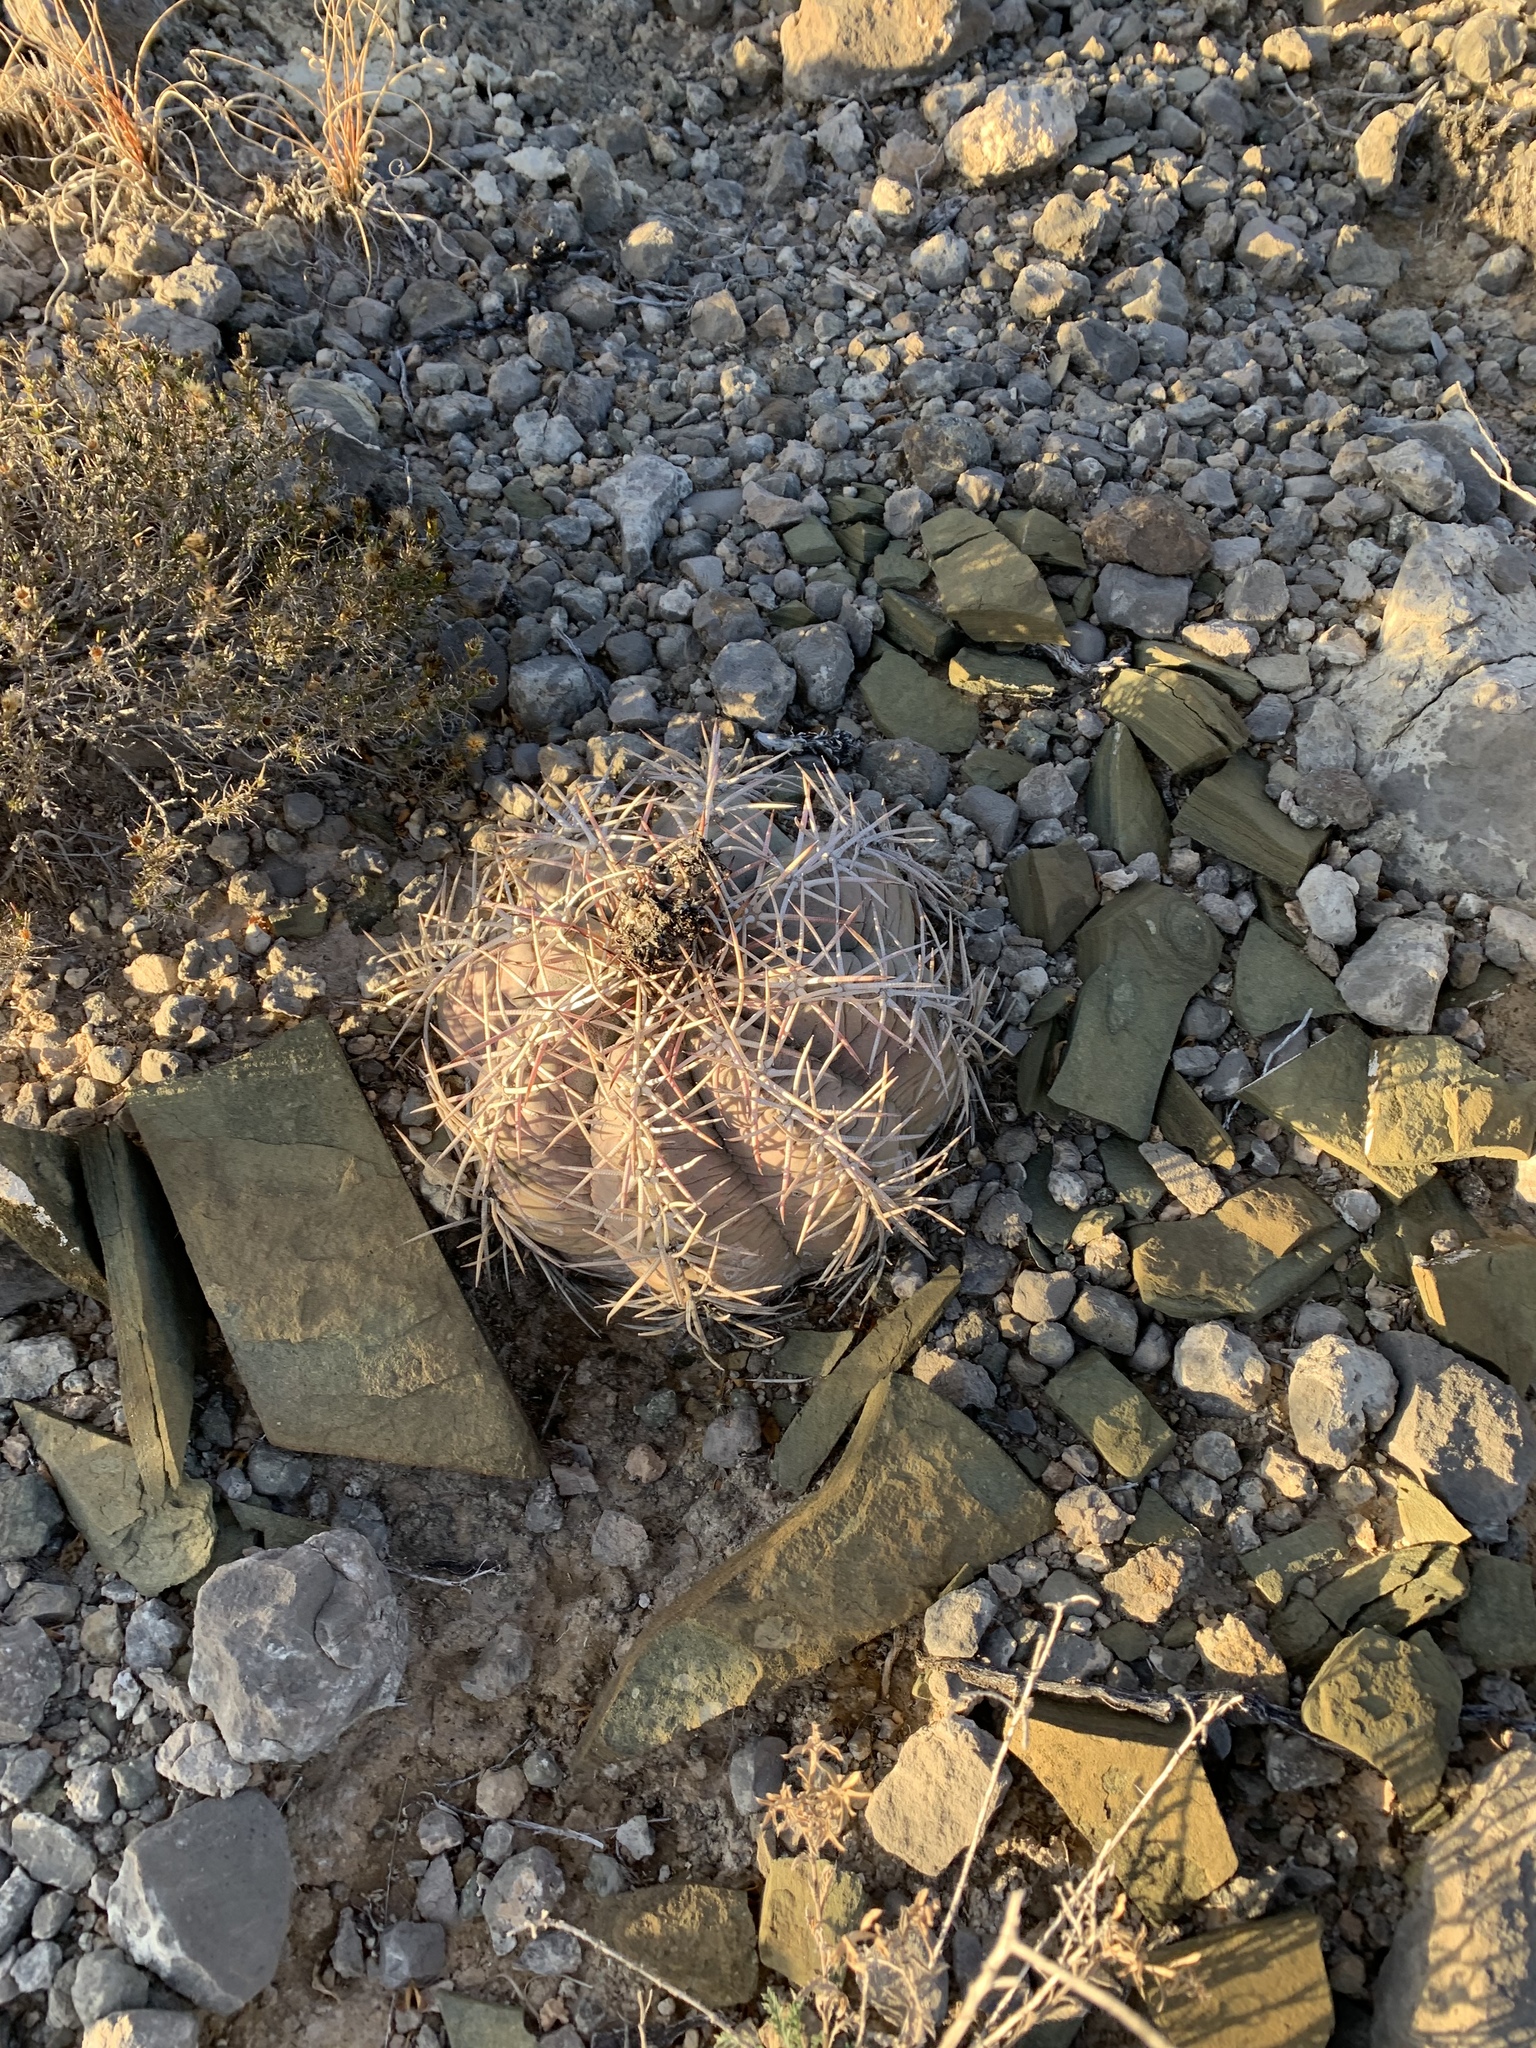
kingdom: Plantae
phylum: Tracheophyta
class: Magnoliopsida
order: Caryophyllales
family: Cactaceae
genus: Echinocactus
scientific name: Echinocactus horizonthalonius
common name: Devilshead
